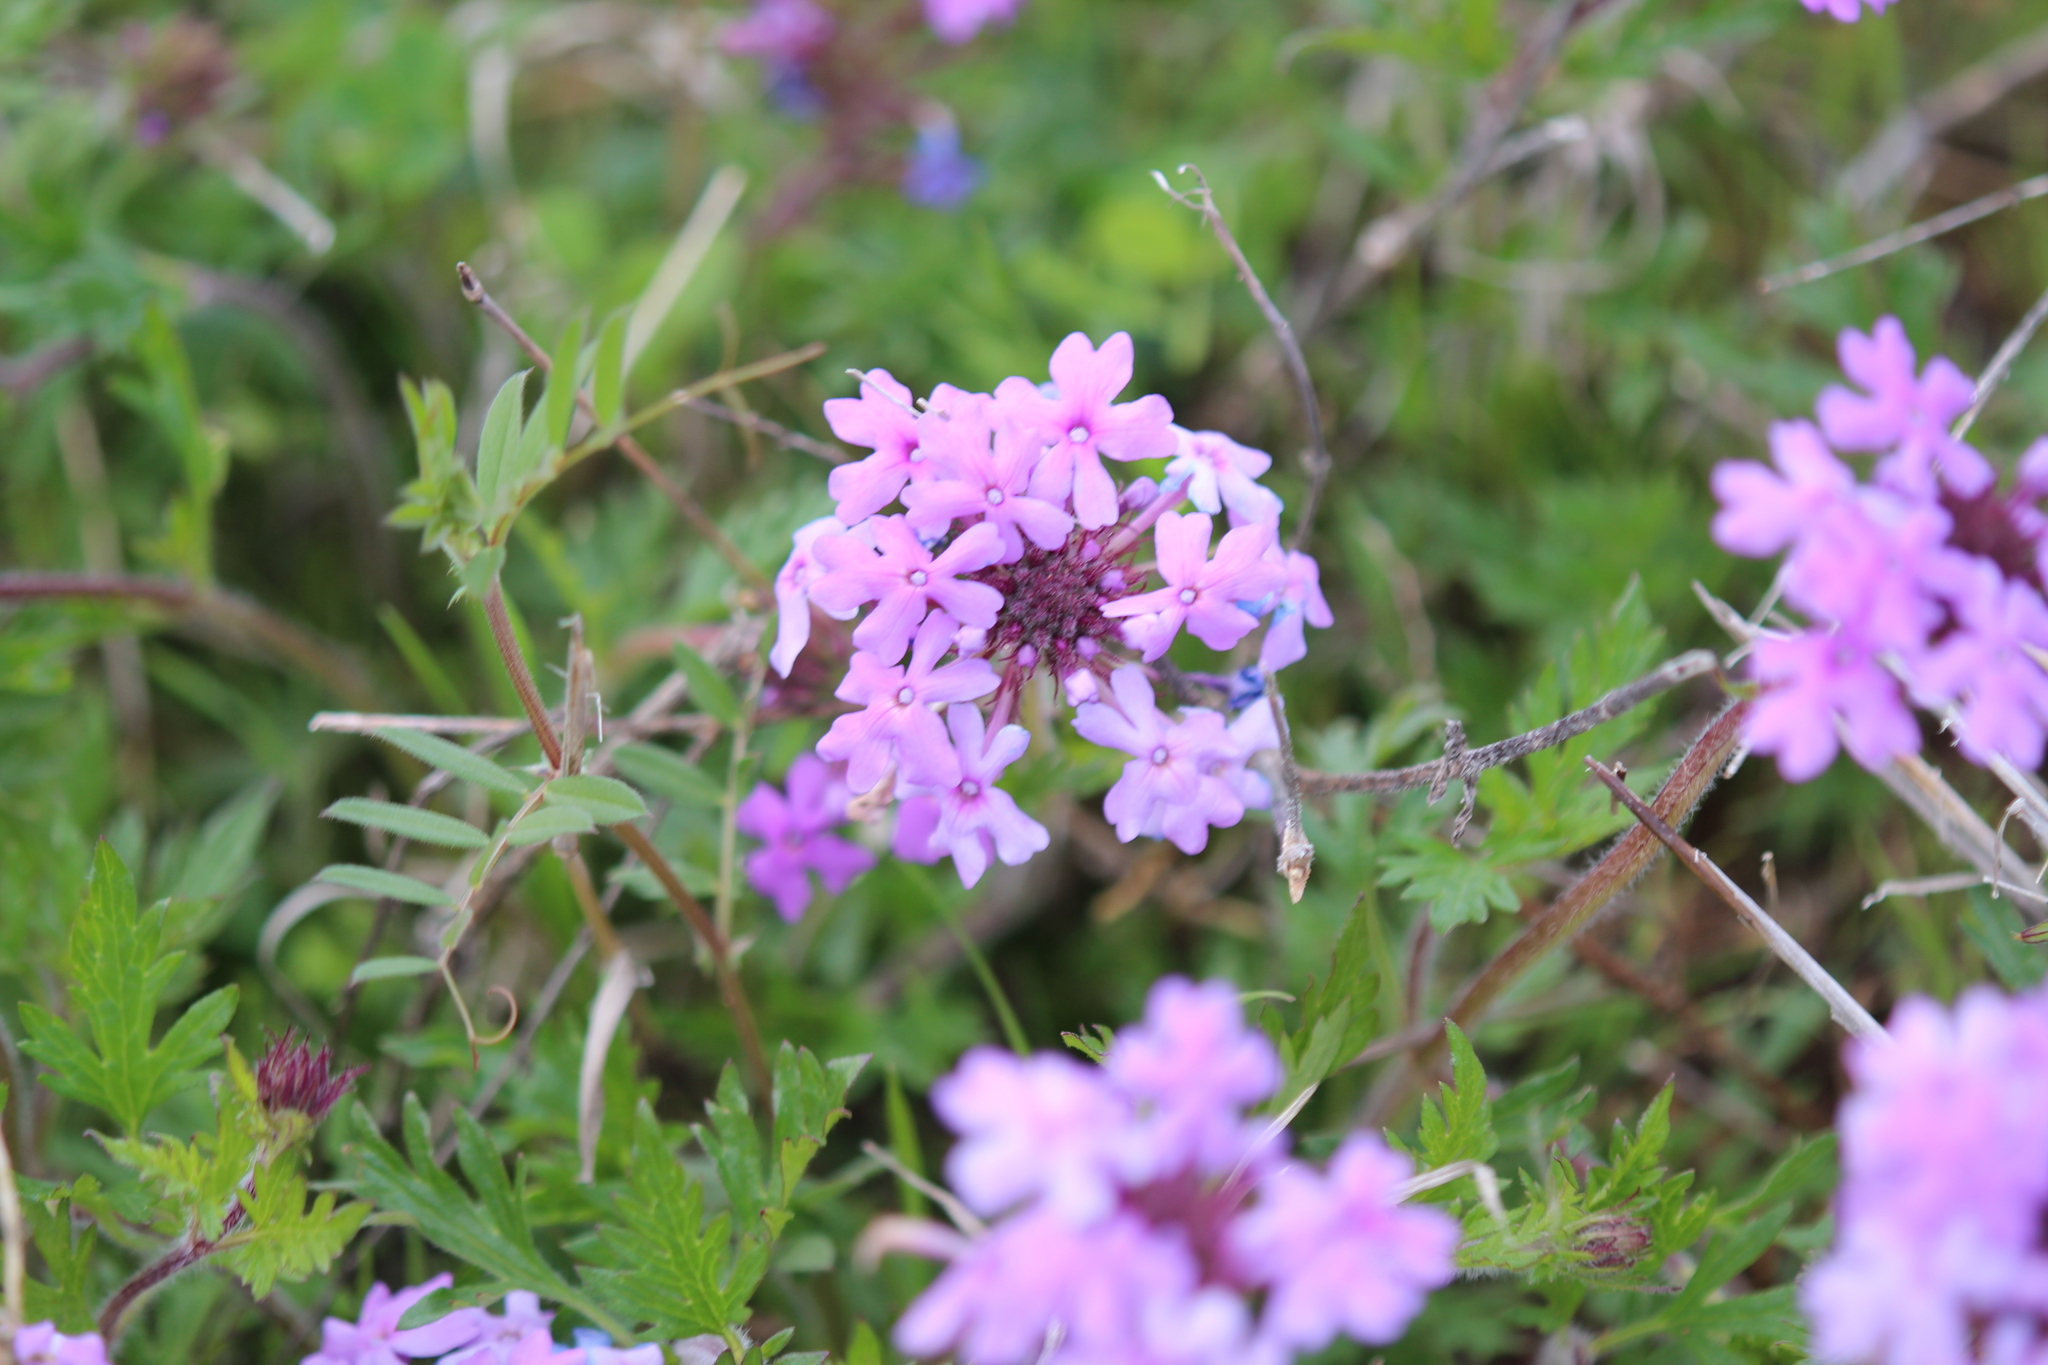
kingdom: Plantae
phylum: Tracheophyta
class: Magnoliopsida
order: Lamiales
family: Verbenaceae
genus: Verbena
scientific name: Verbena canadensis
